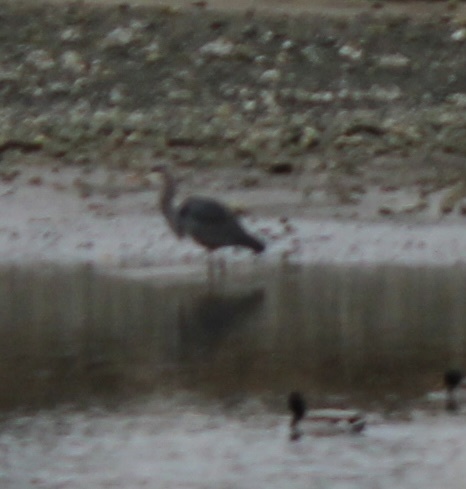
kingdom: Animalia
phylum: Chordata
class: Aves
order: Pelecaniformes
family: Ardeidae
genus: Ardea
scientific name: Ardea herodias
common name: Great blue heron
